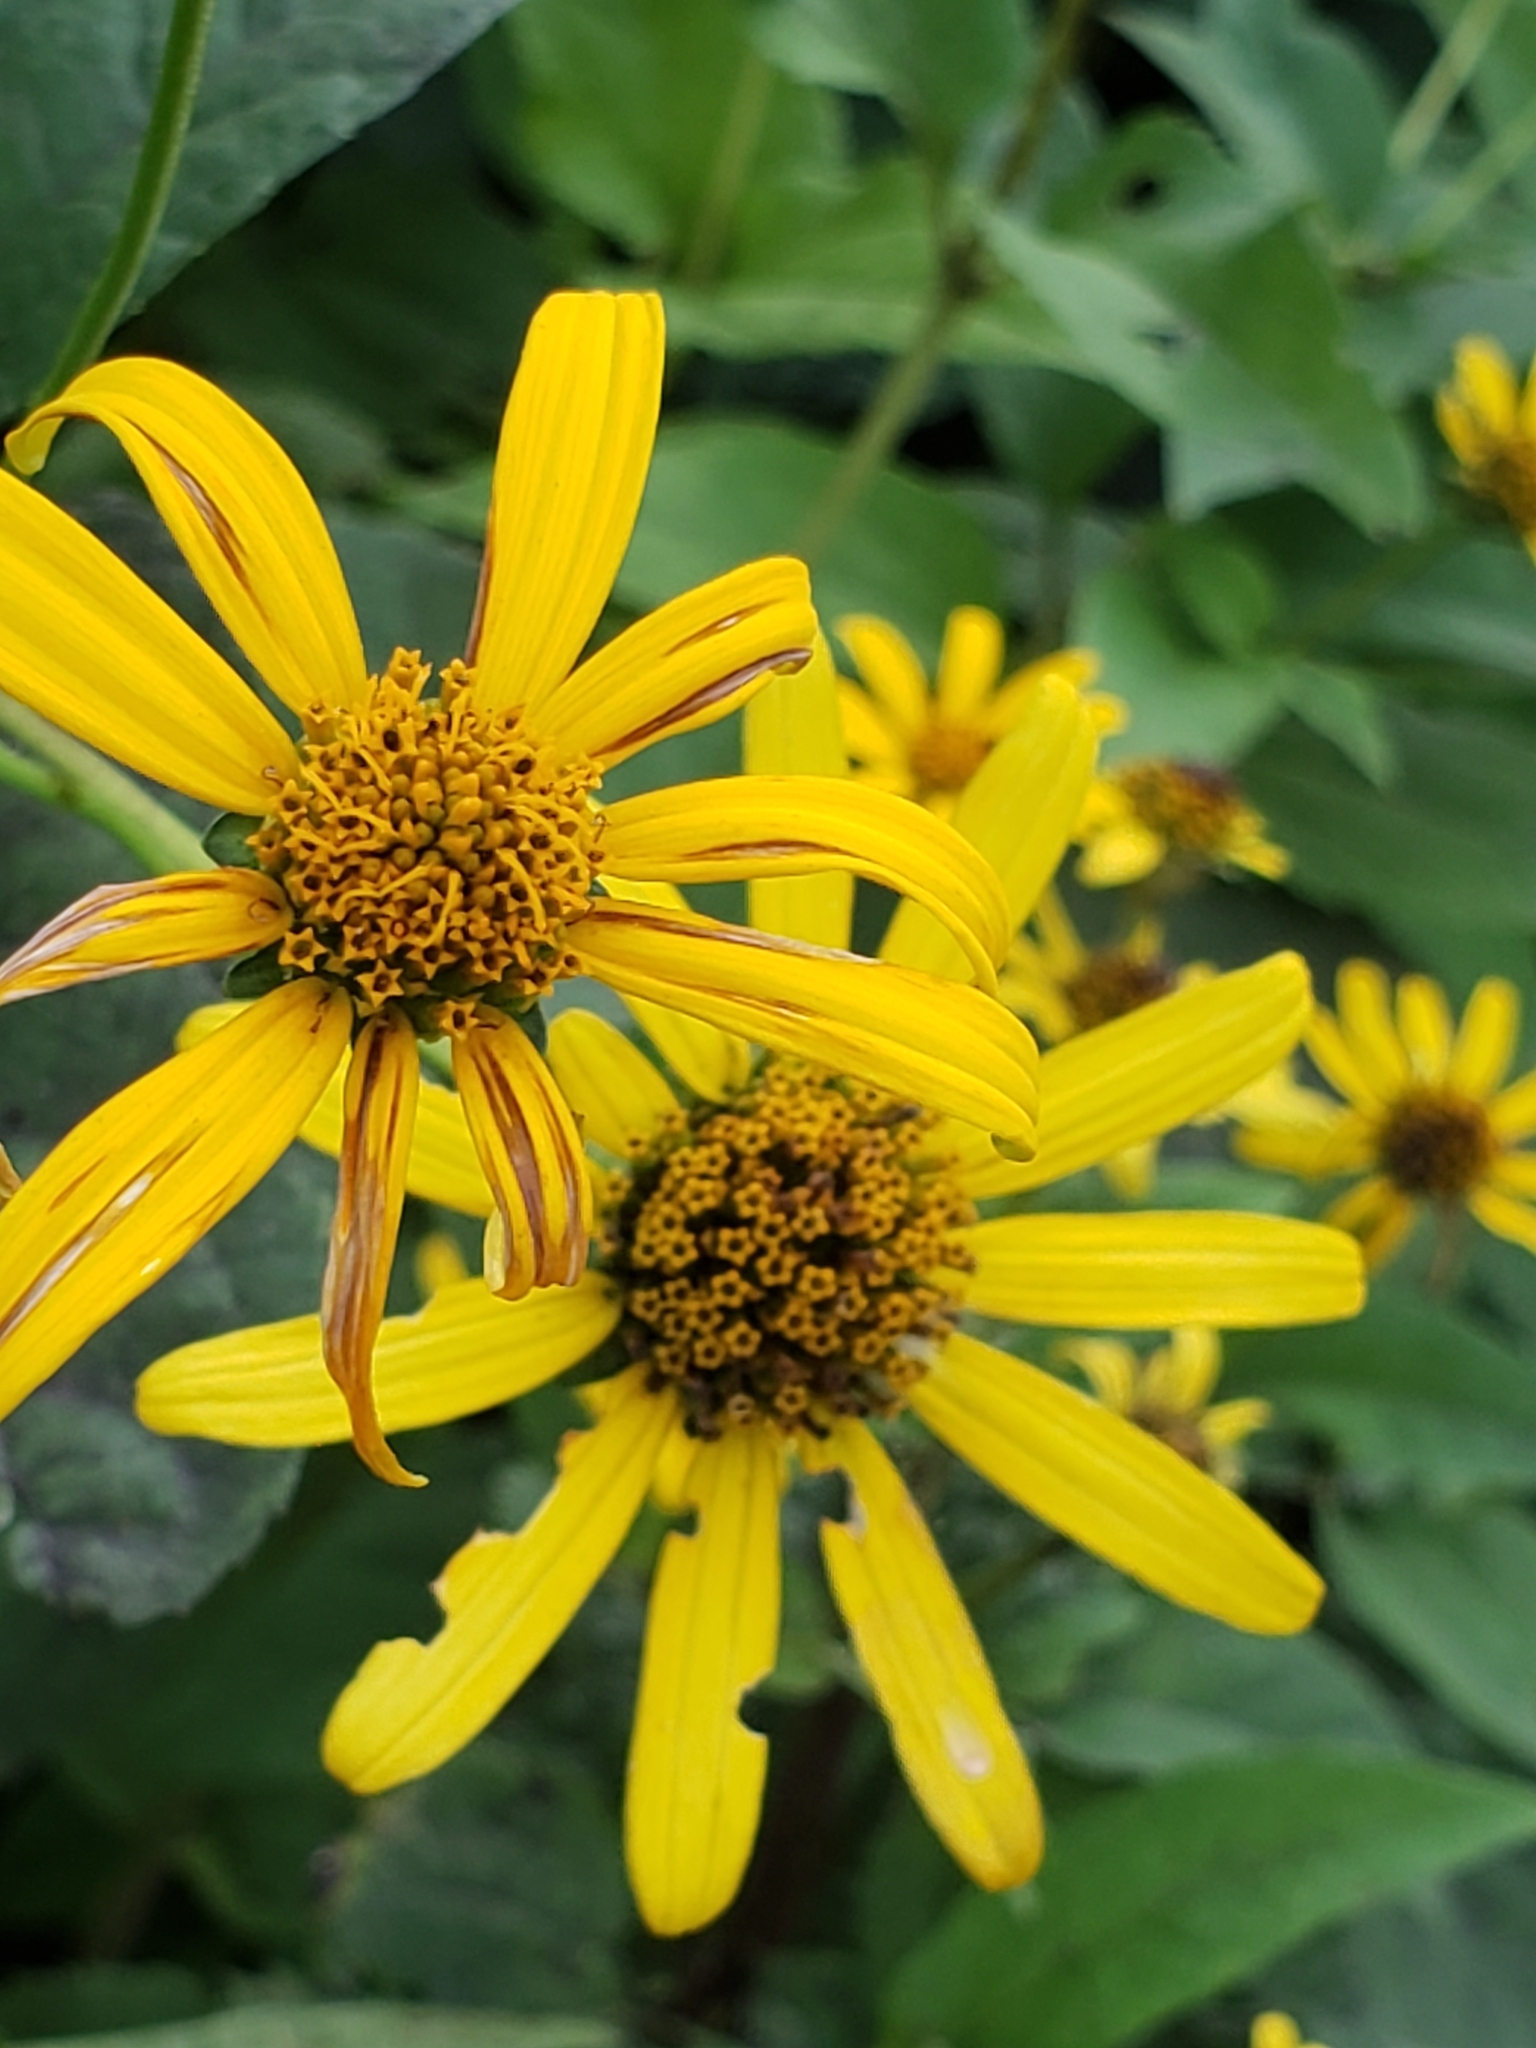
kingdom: Animalia
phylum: Arthropoda
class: Insecta
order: Hemiptera
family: Lygaeidae
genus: Lygaeus
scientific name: Lygaeus turcicus
